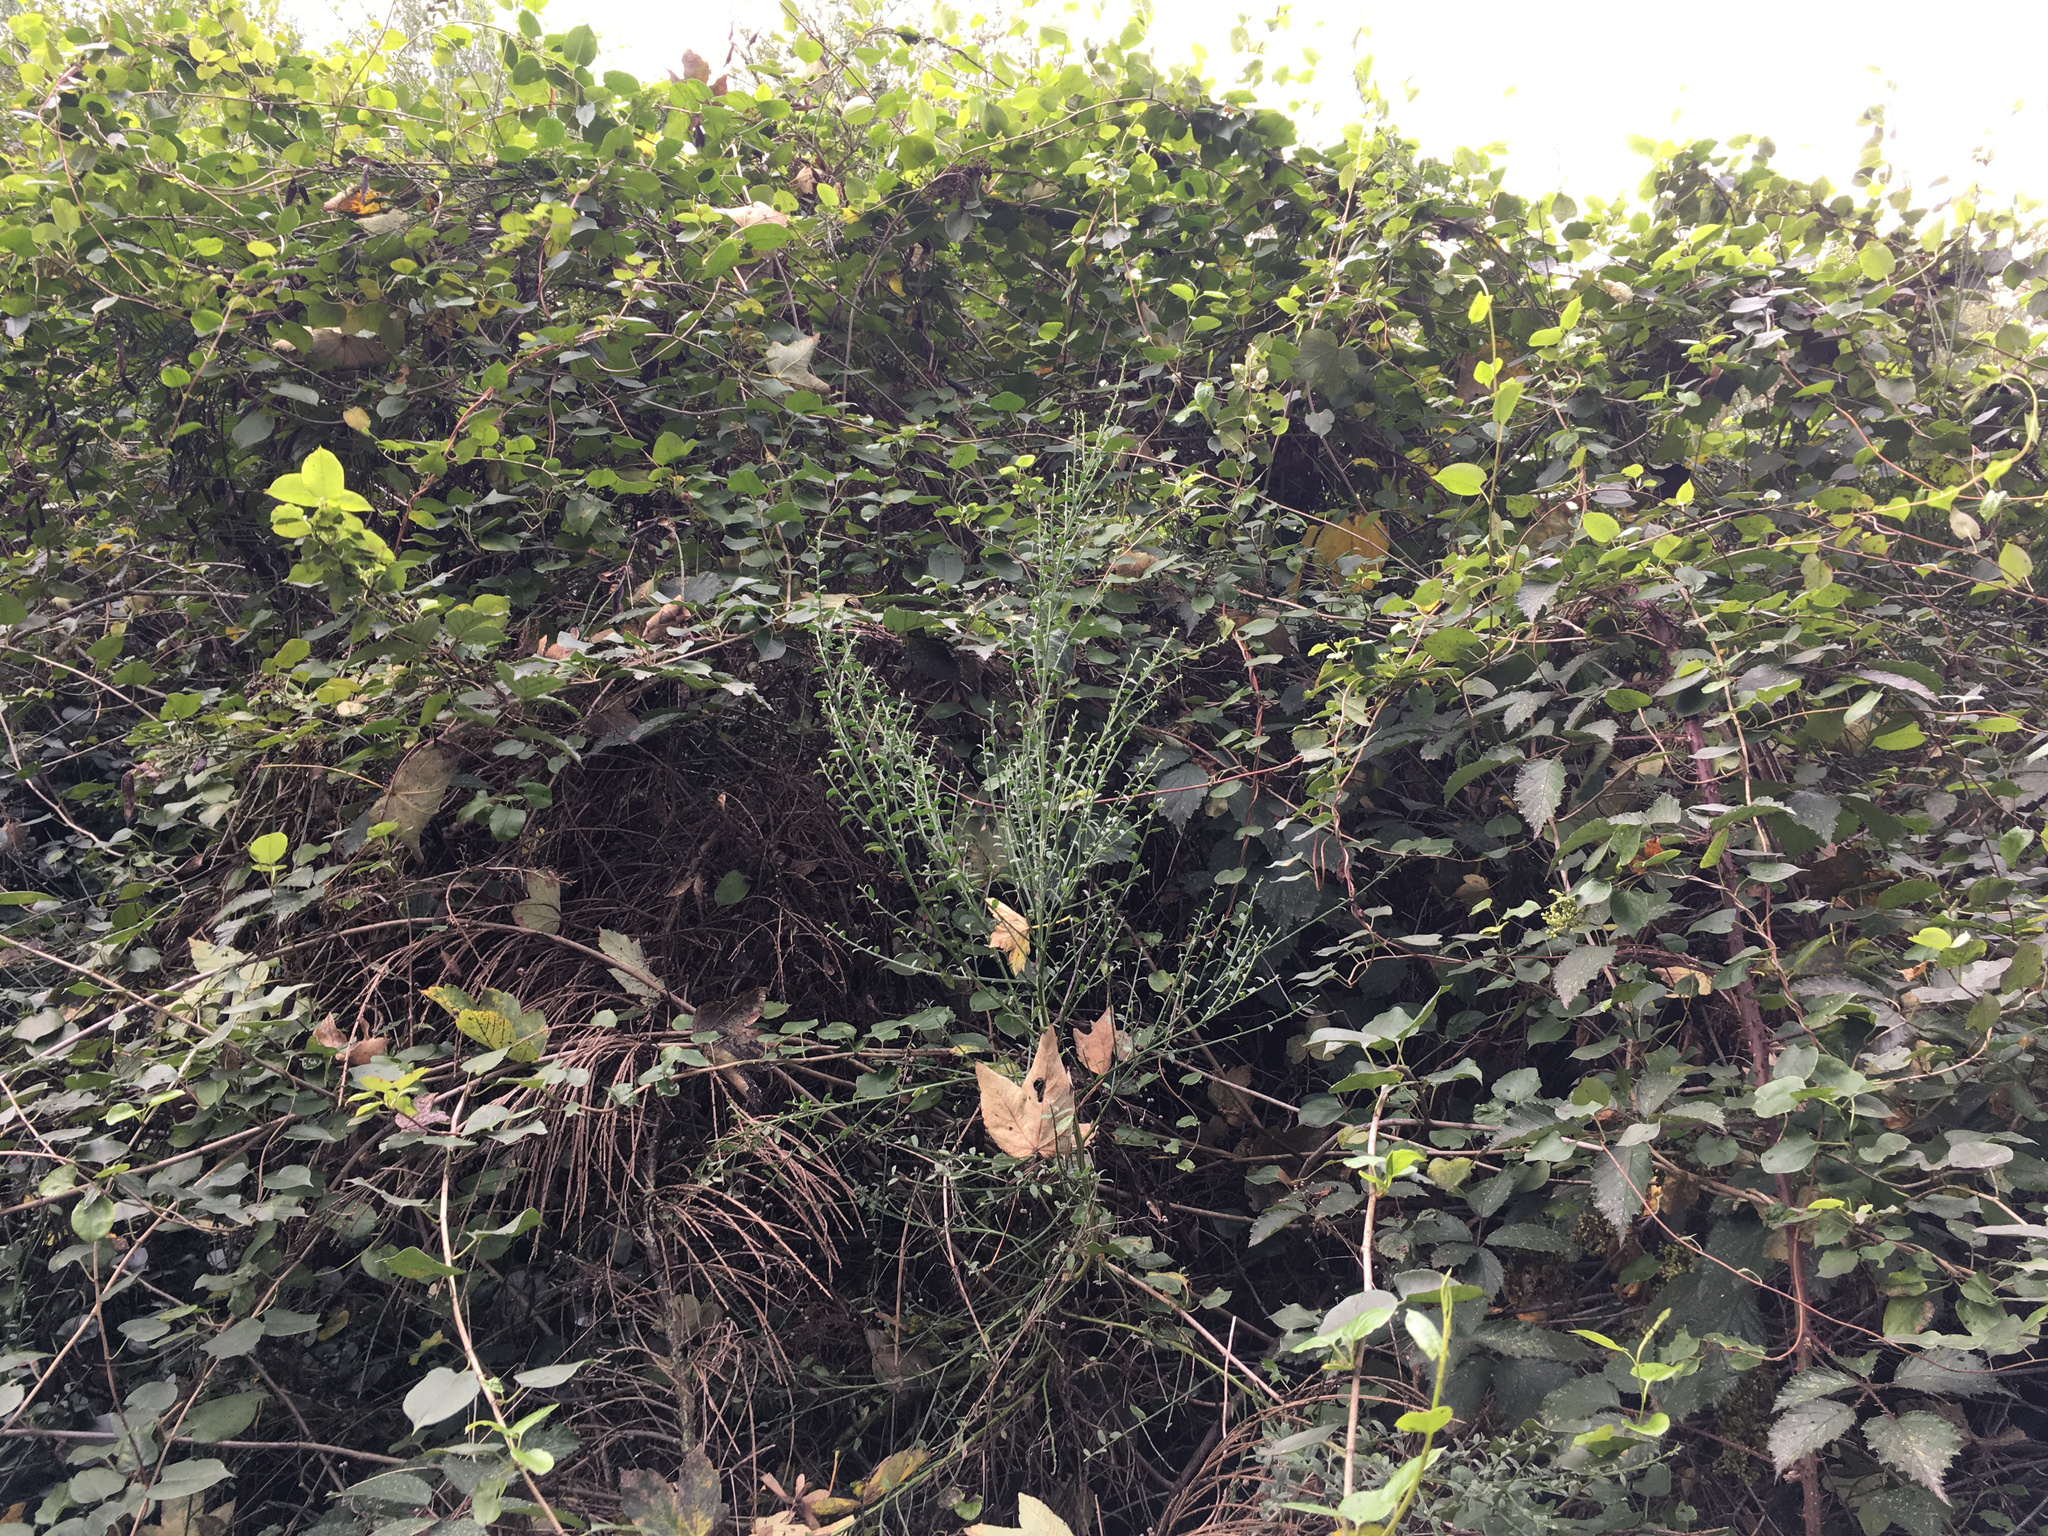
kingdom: Plantae
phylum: Tracheophyta
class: Magnoliopsida
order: Caryophyllales
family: Polygonaceae
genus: Muehlenbeckia
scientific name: Muehlenbeckia australis
